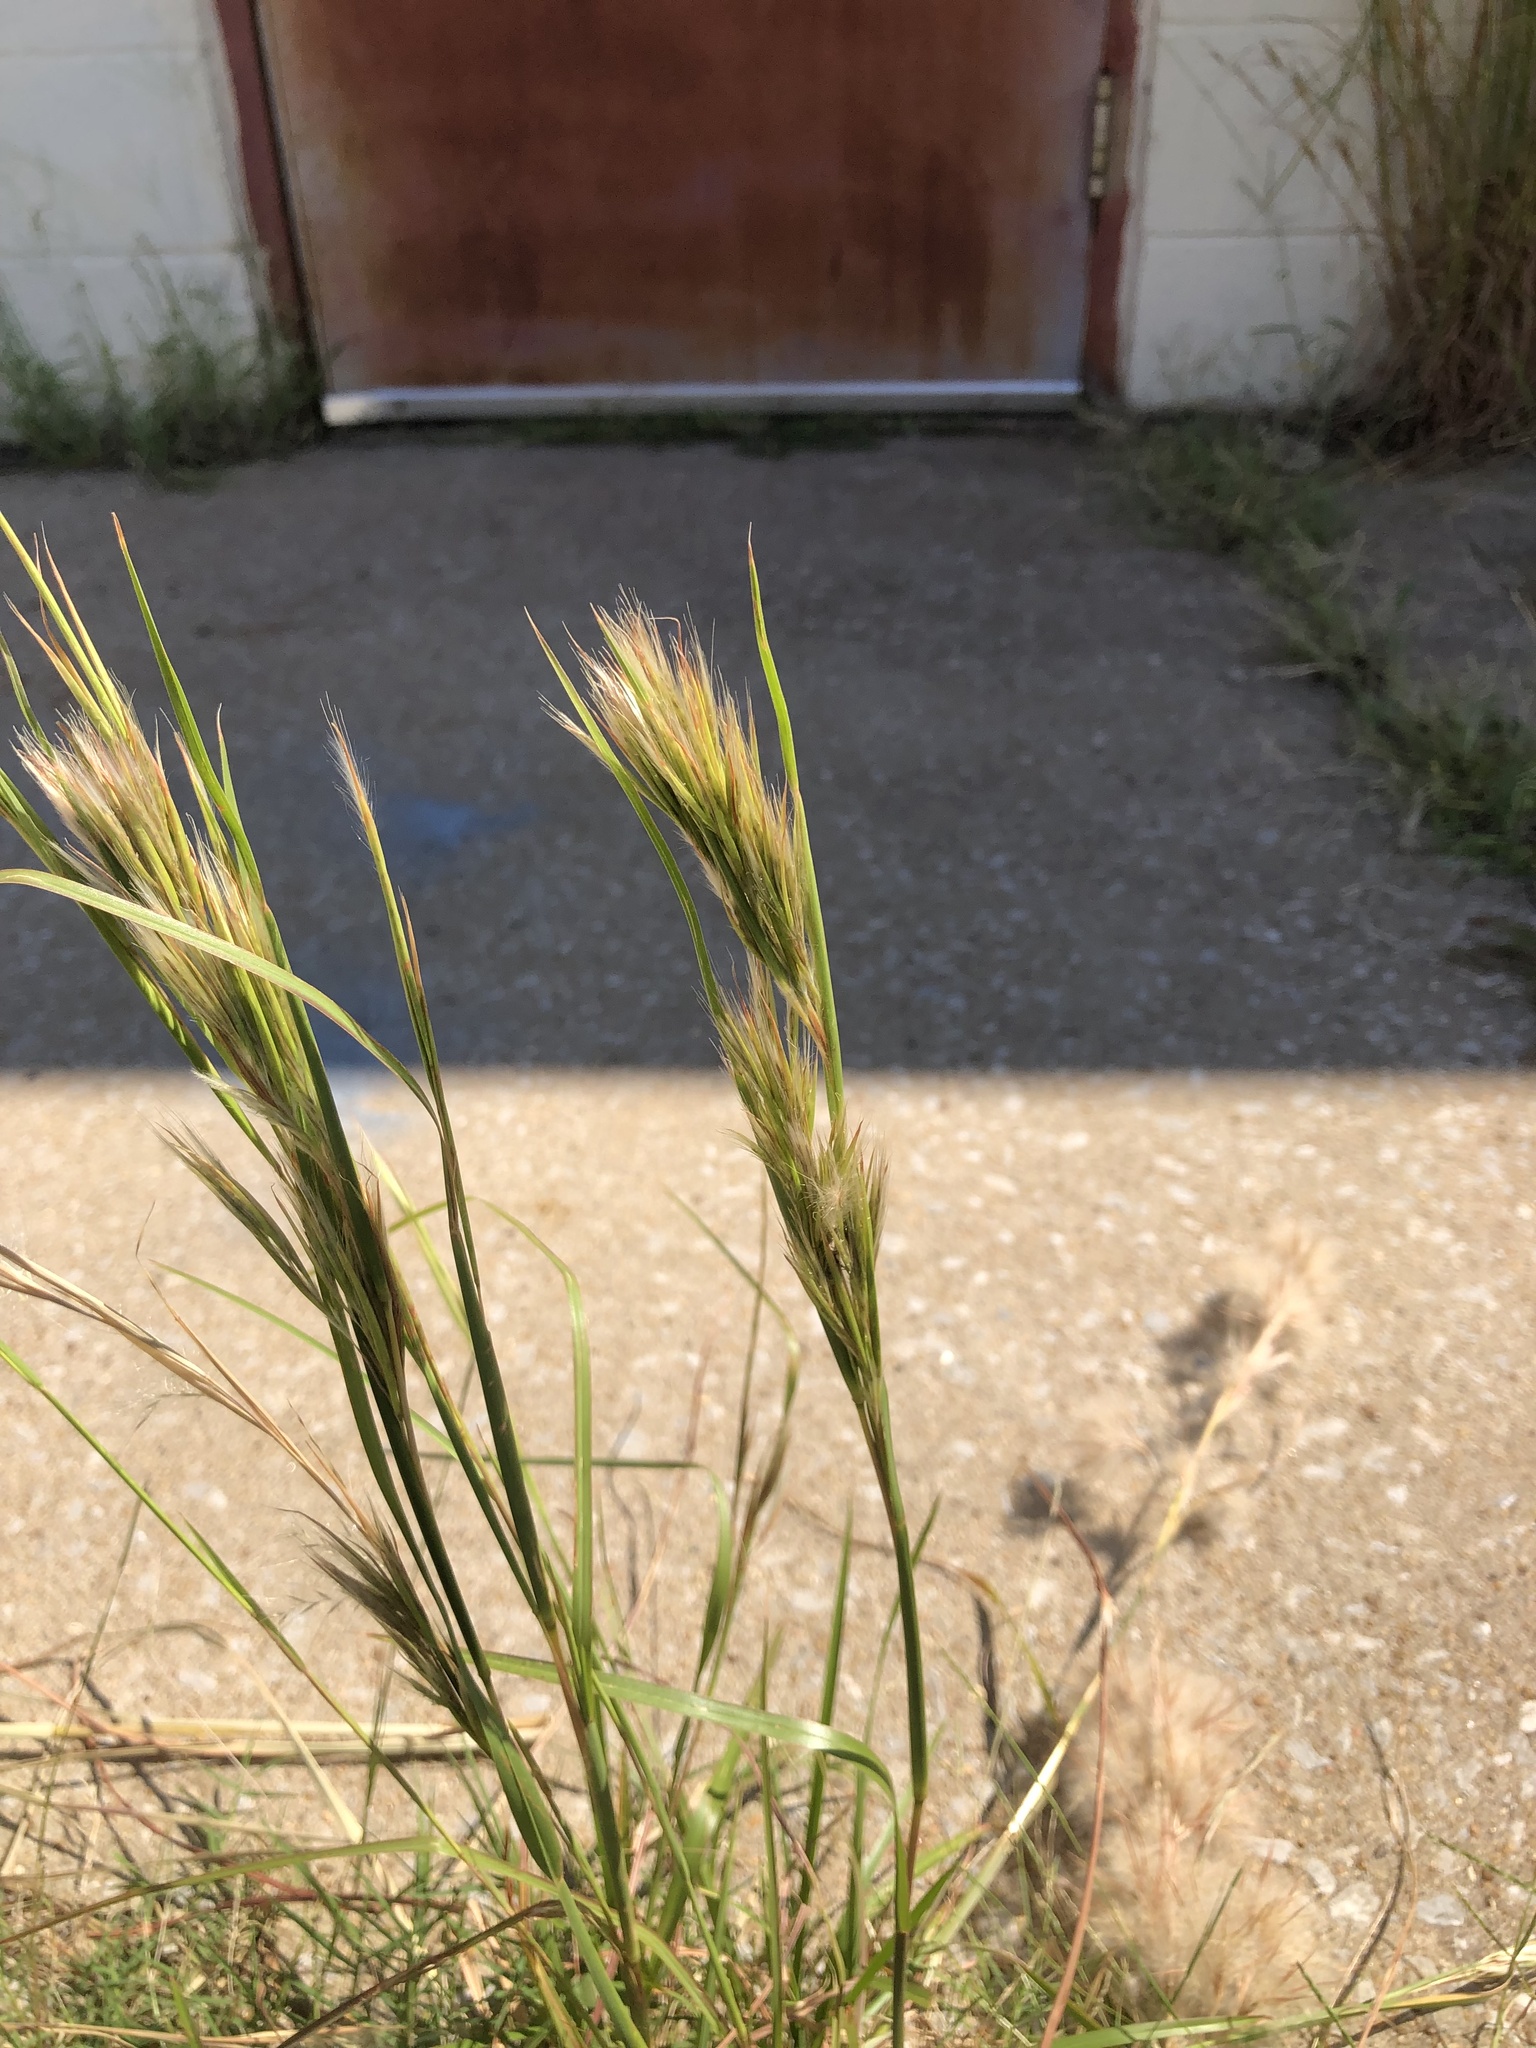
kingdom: Plantae
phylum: Tracheophyta
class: Liliopsida
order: Poales
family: Poaceae
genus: Andropogon
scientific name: Andropogon tenuispatheus
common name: Bushy bluestem
